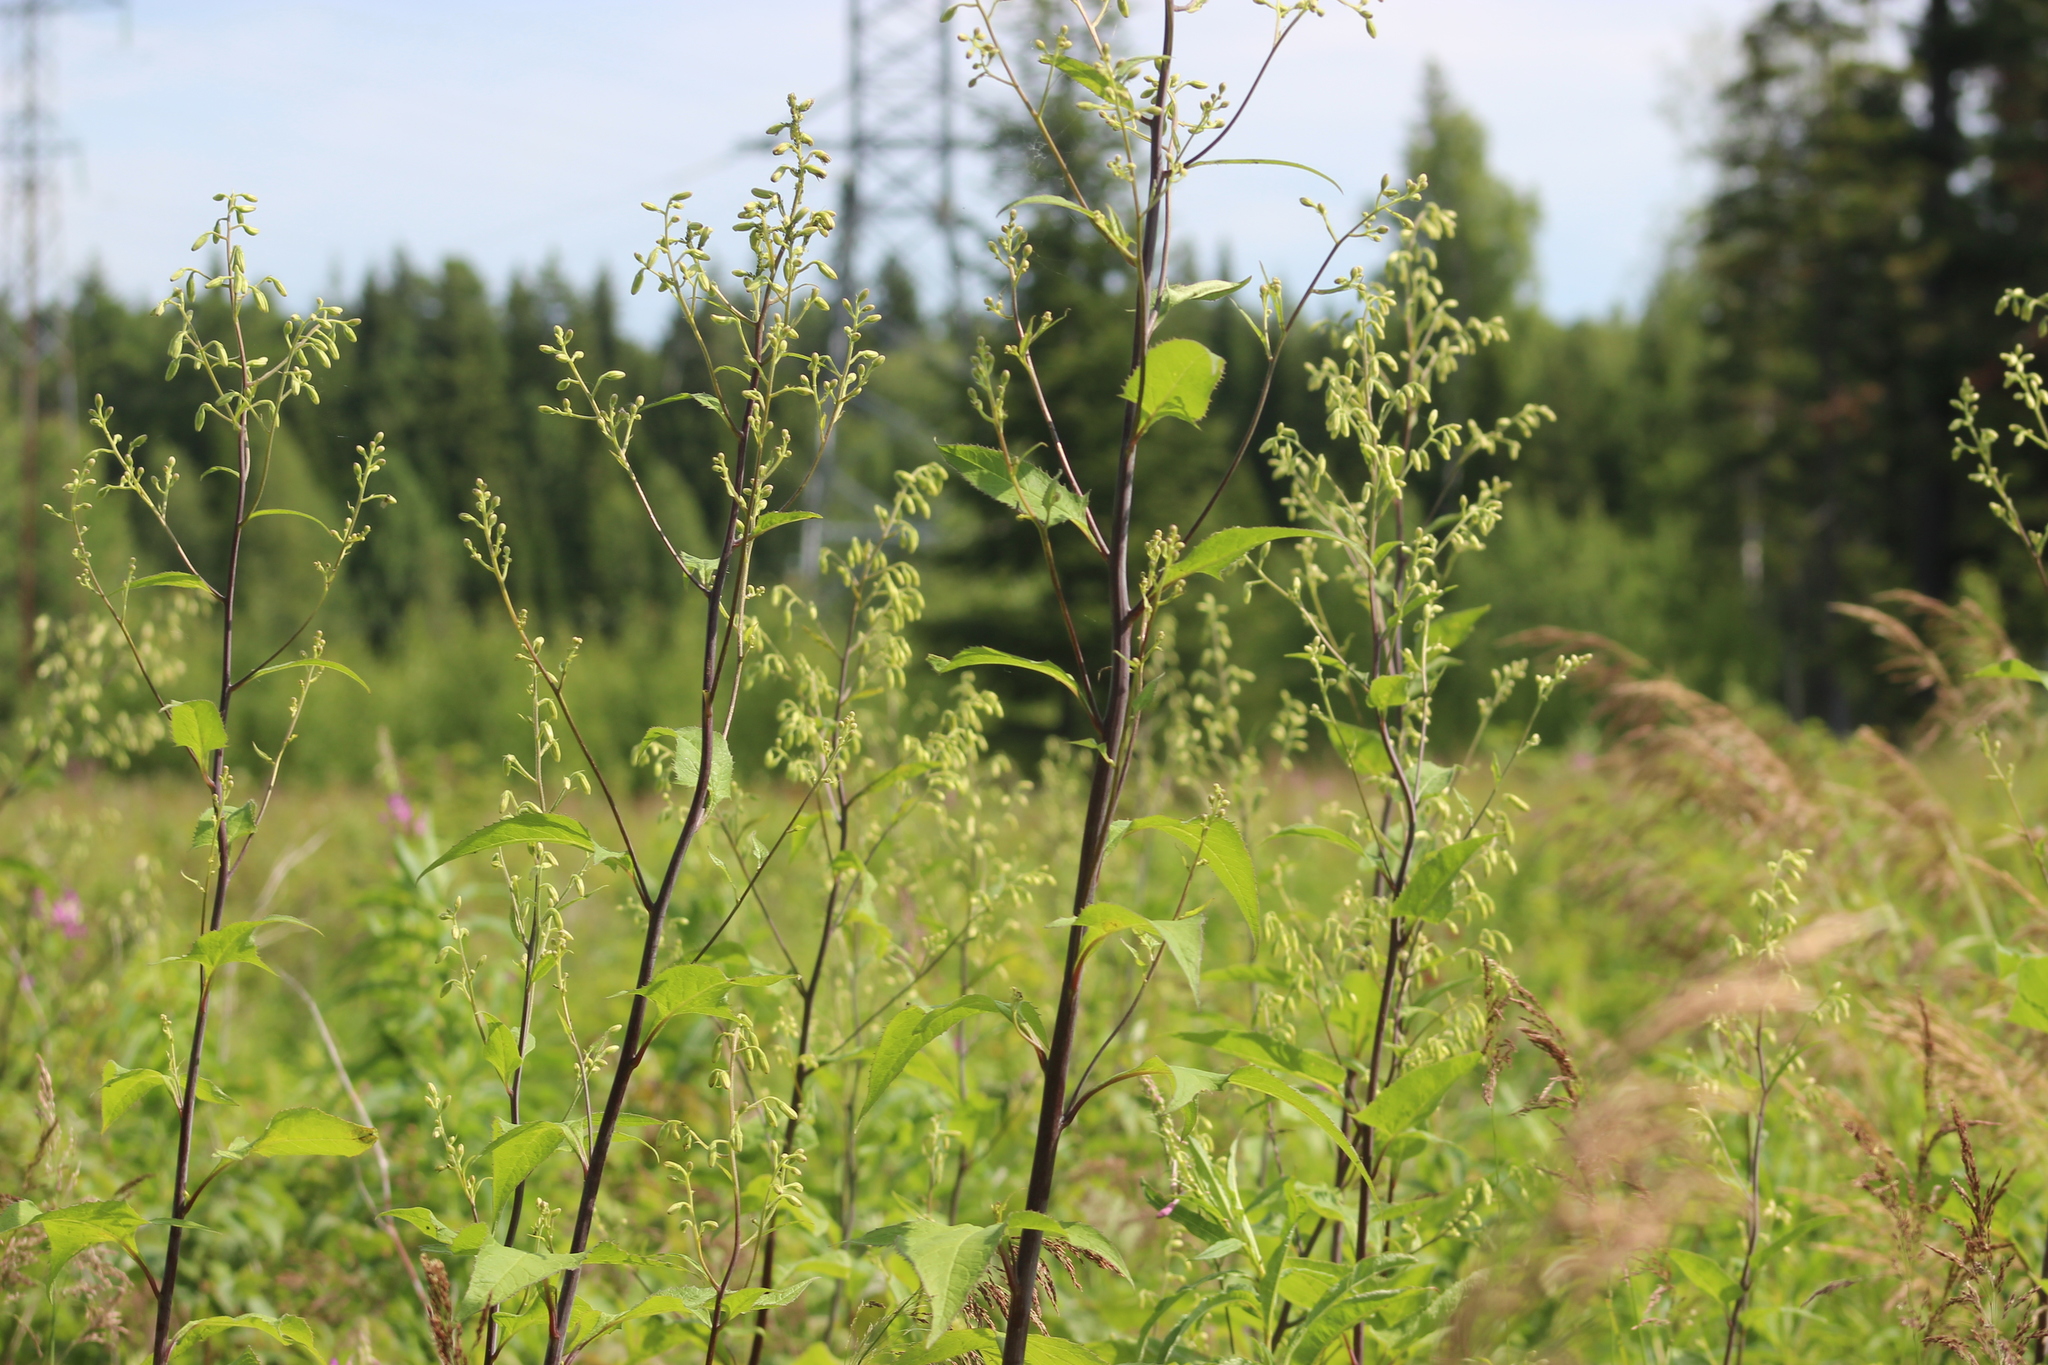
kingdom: Plantae
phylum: Tracheophyta
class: Magnoliopsida
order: Asterales
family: Asteraceae
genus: Parasenecio
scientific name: Parasenecio hastatus
